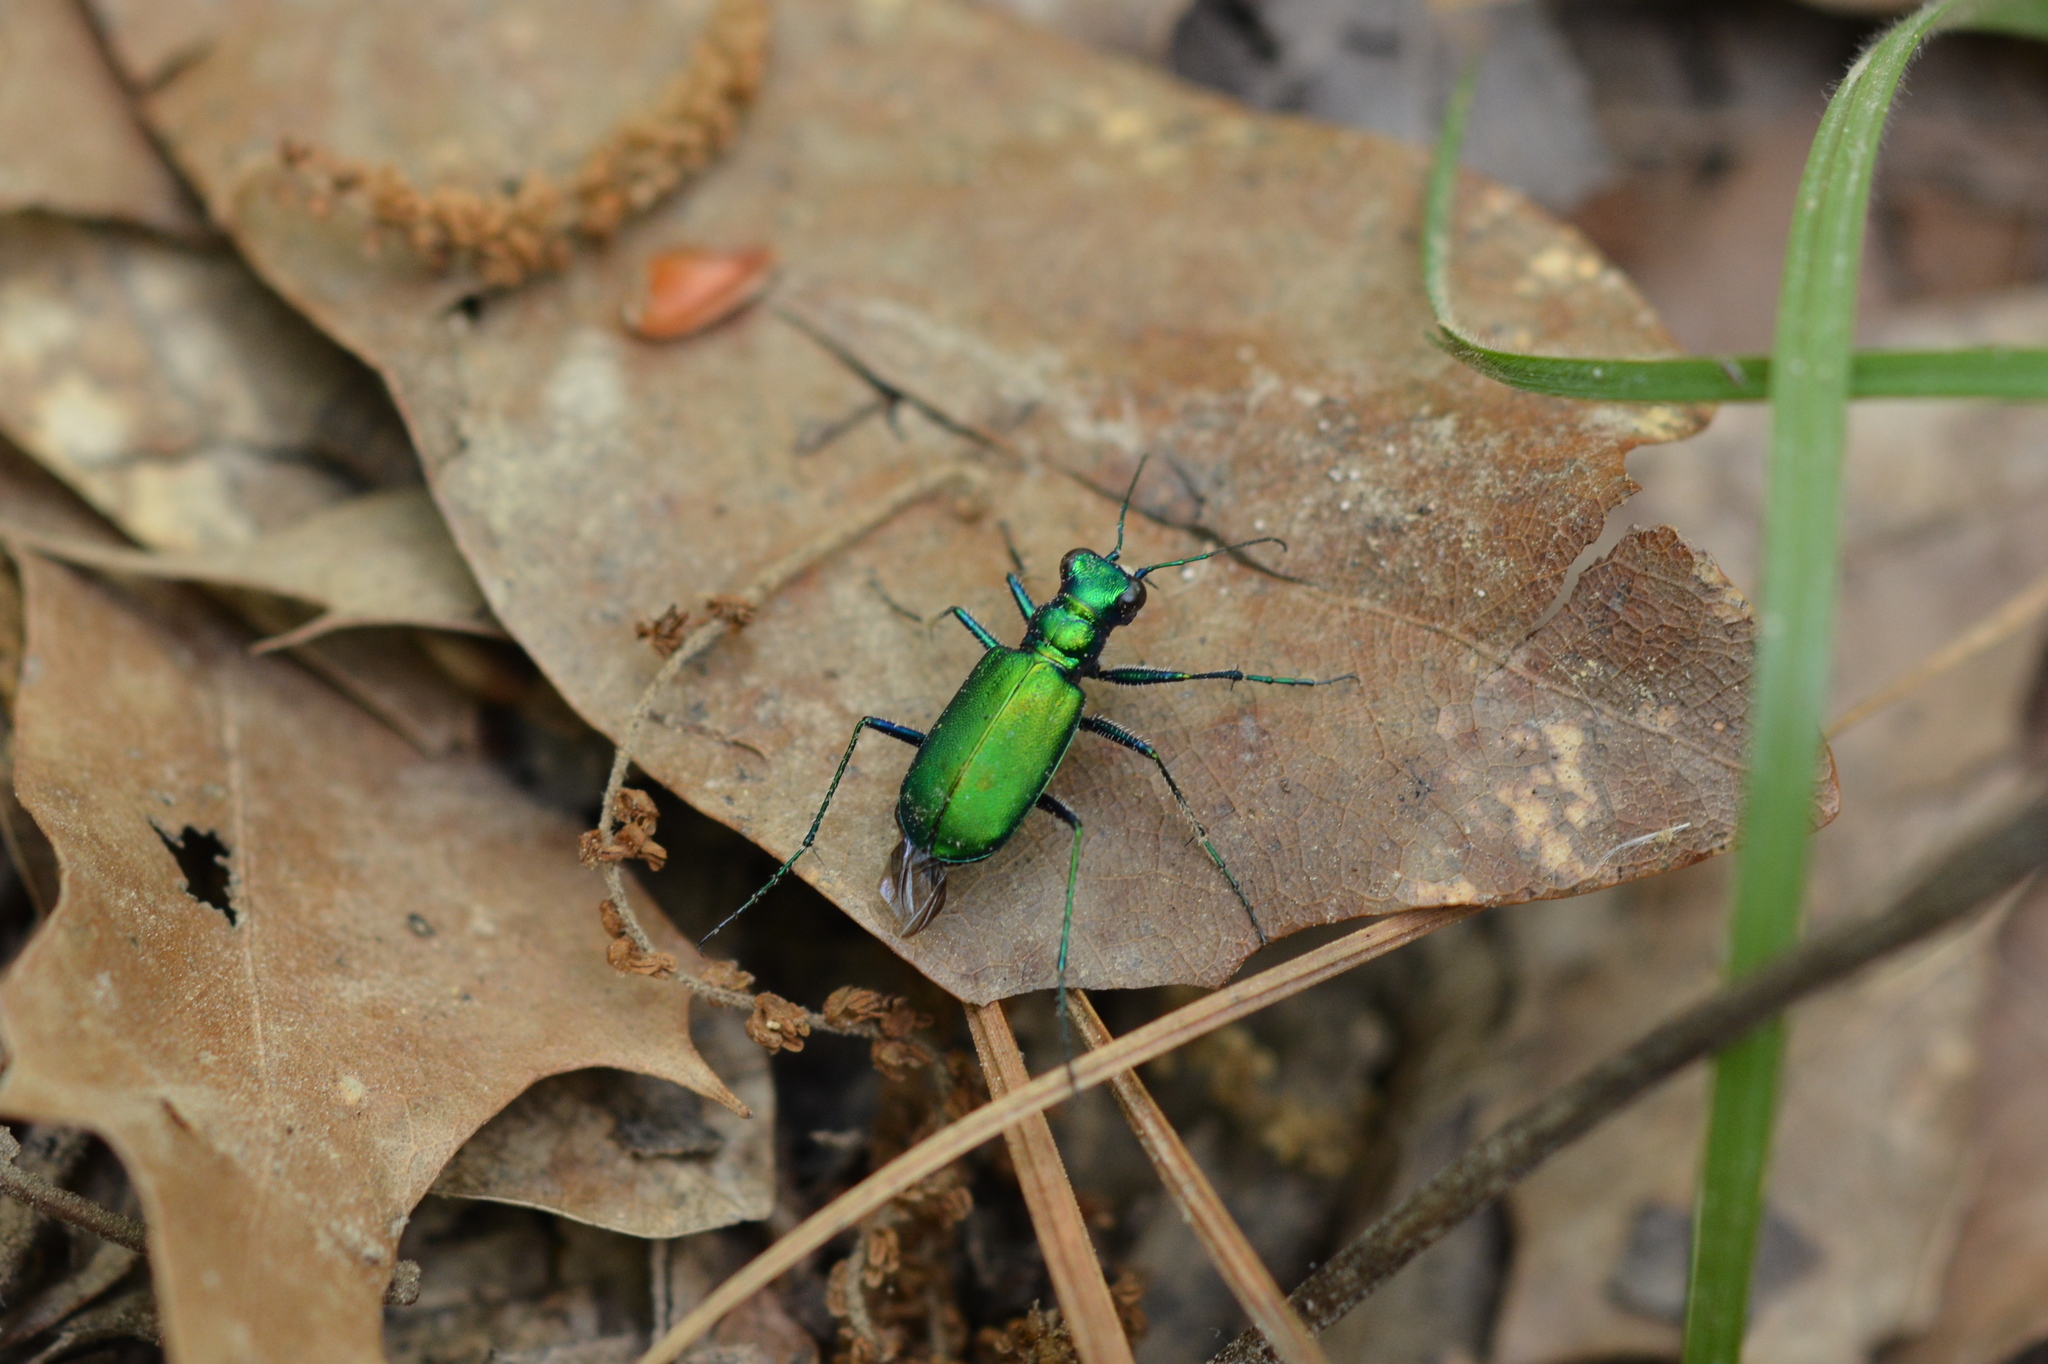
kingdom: Animalia
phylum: Arthropoda
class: Insecta
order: Coleoptera
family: Carabidae
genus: Cicindela
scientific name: Cicindela sexguttata
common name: Six-spotted tiger beetle
